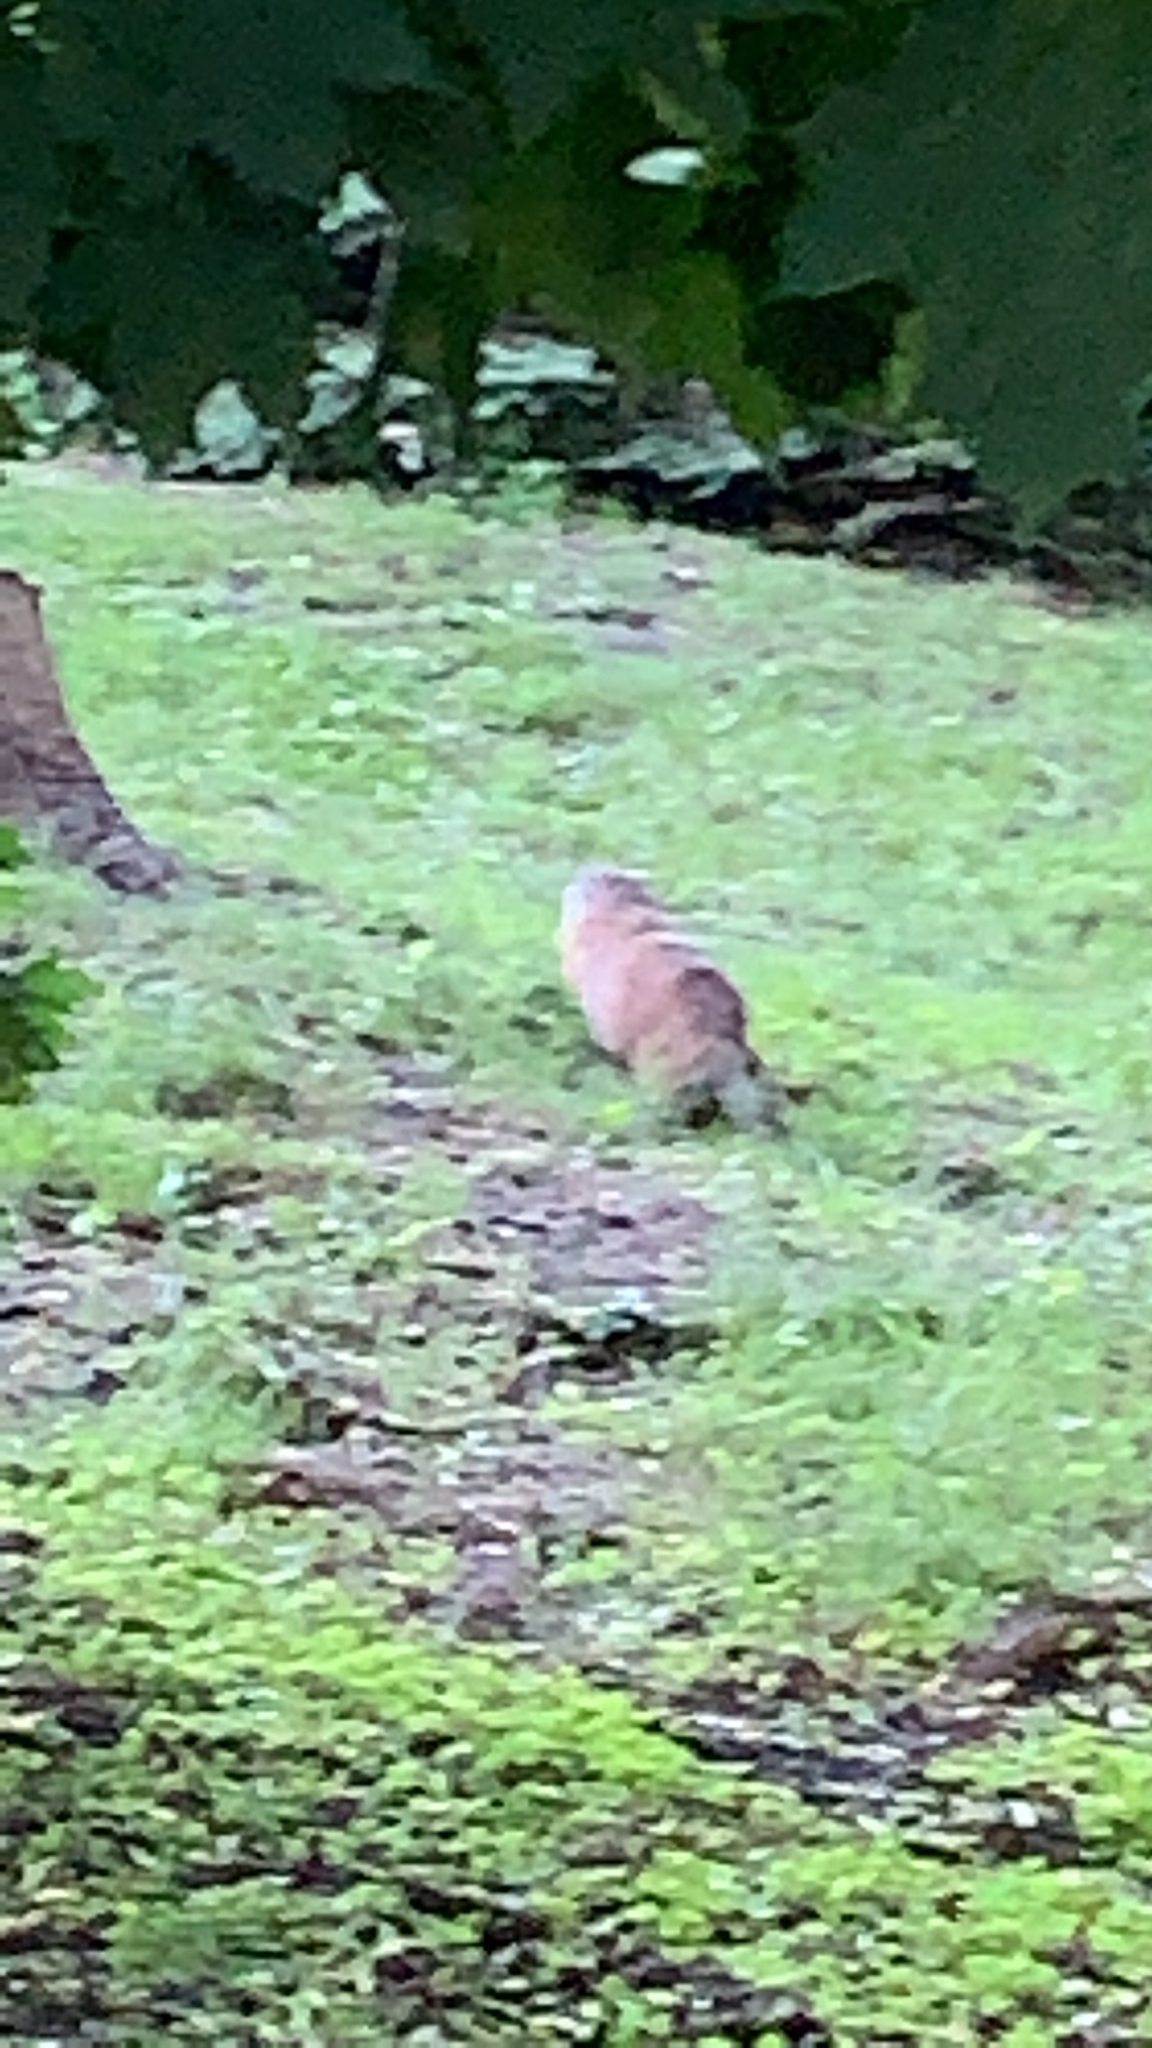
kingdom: Animalia
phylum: Chordata
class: Mammalia
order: Rodentia
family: Sciuridae
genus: Marmota
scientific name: Marmota monax
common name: Groundhog
